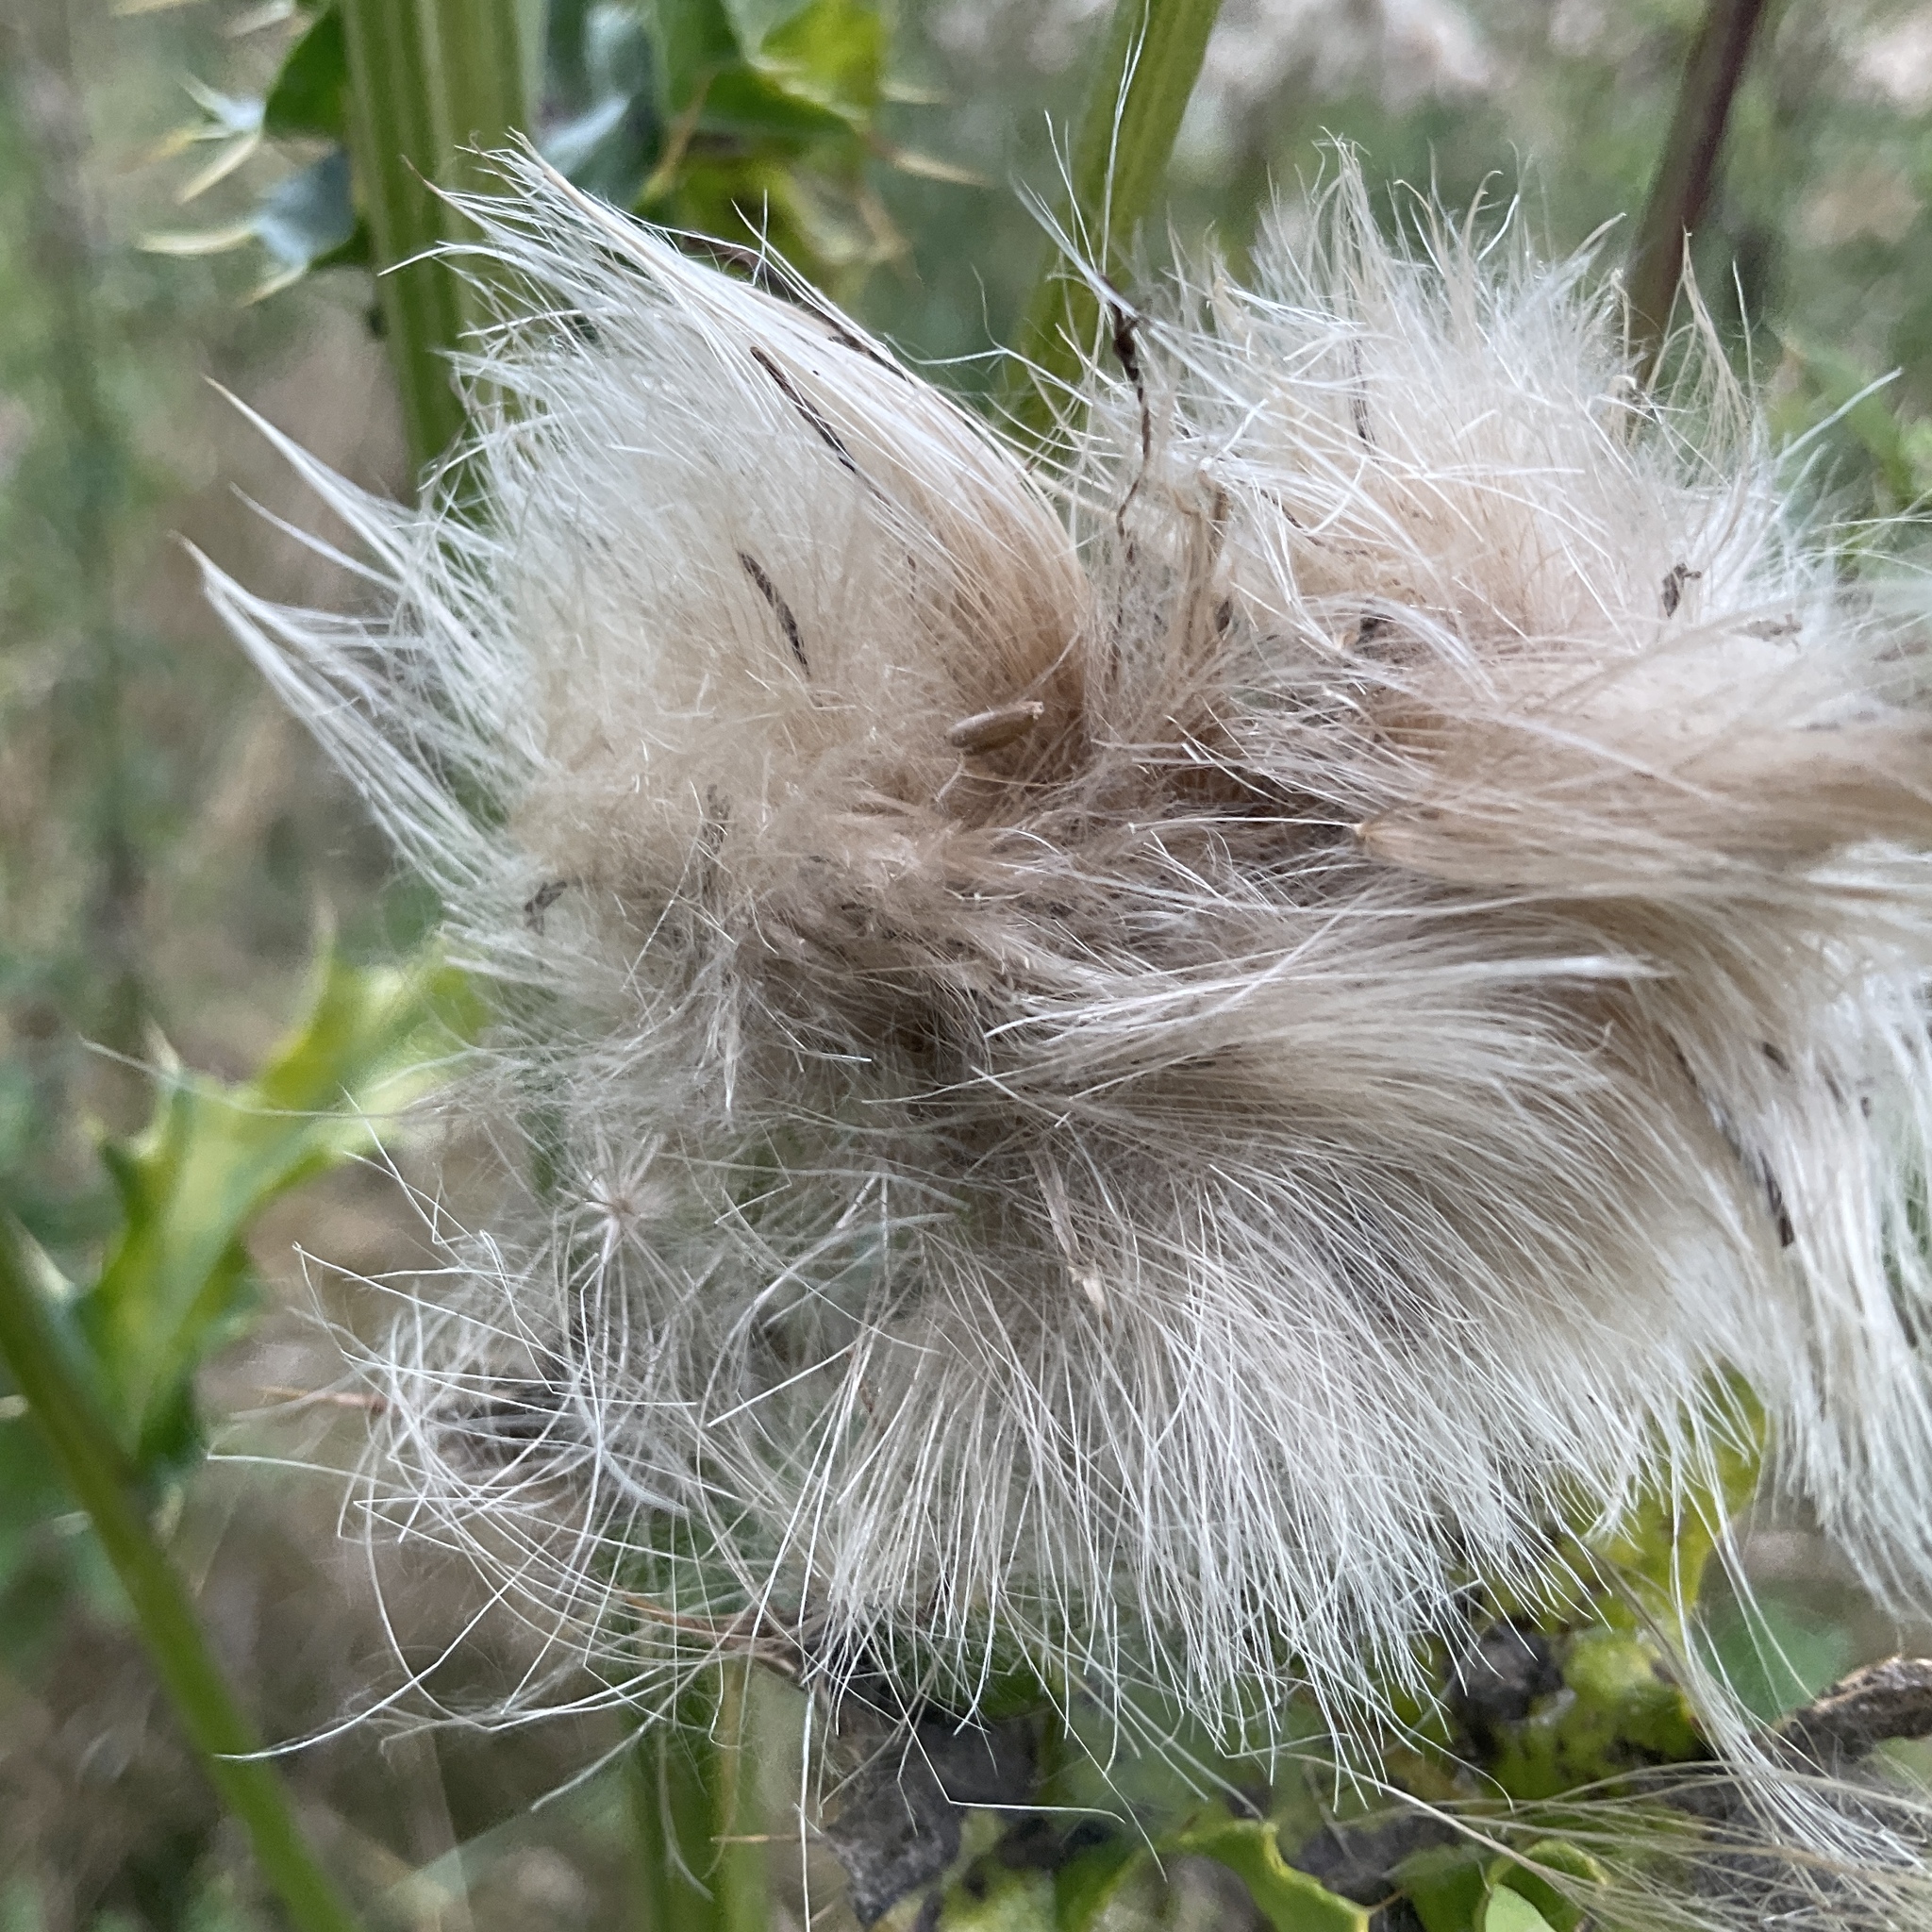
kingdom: Plantae
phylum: Tracheophyta
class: Magnoliopsida
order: Asterales
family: Asteraceae
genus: Cirsium
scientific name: Cirsium arvense
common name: Creeping thistle
